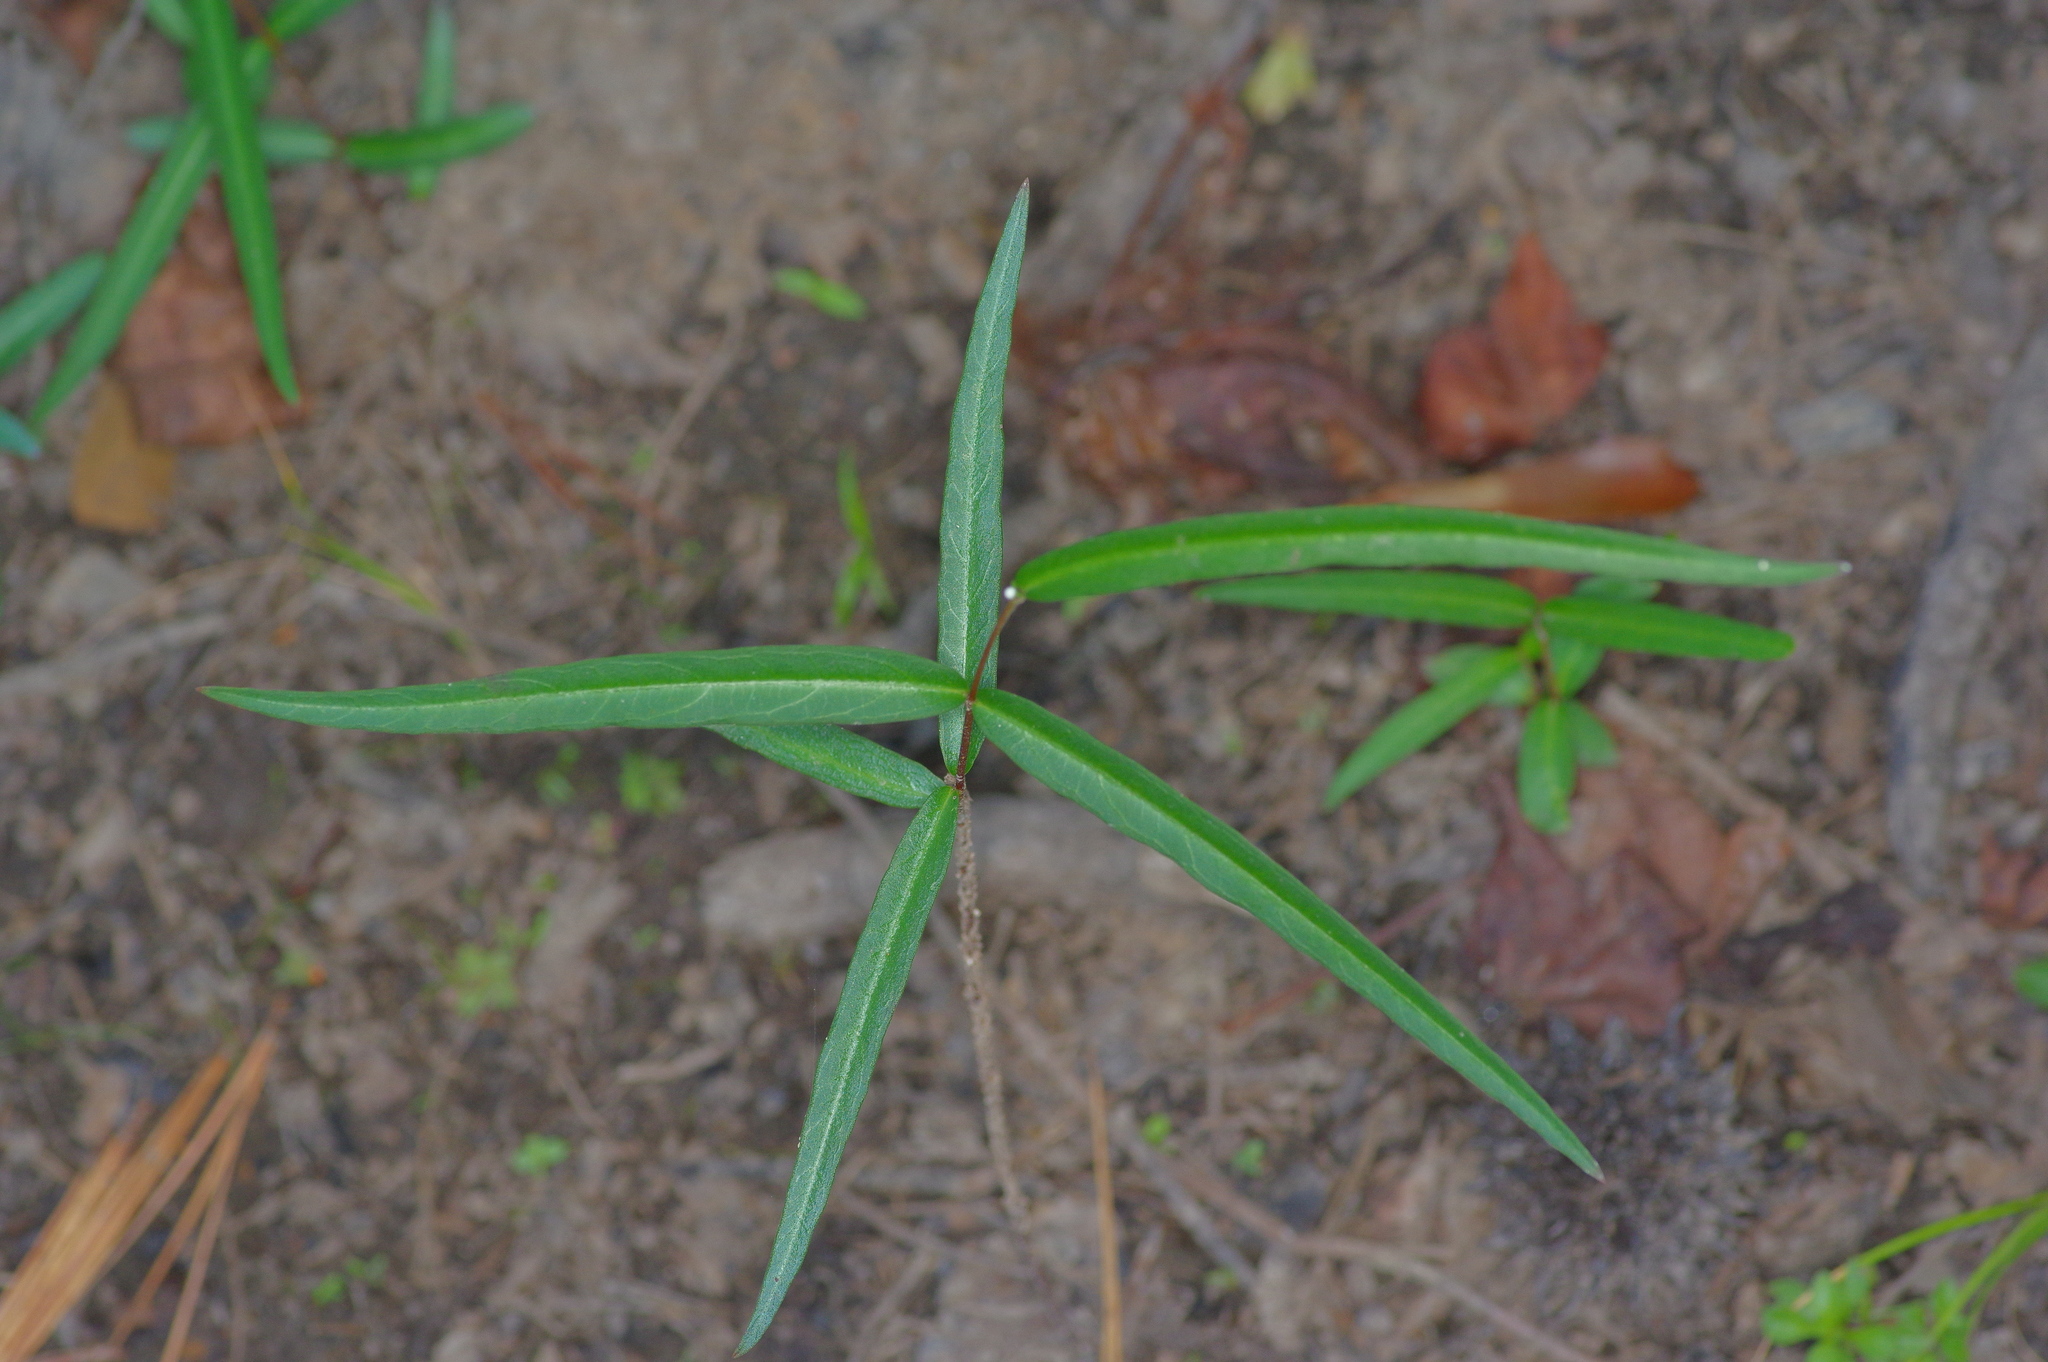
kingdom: Plantae
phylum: Tracheophyta
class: Magnoliopsida
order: Gentianales
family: Apocynaceae
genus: Thyrsanthella
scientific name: Thyrsanthella difformis
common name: Climbing dogbane
